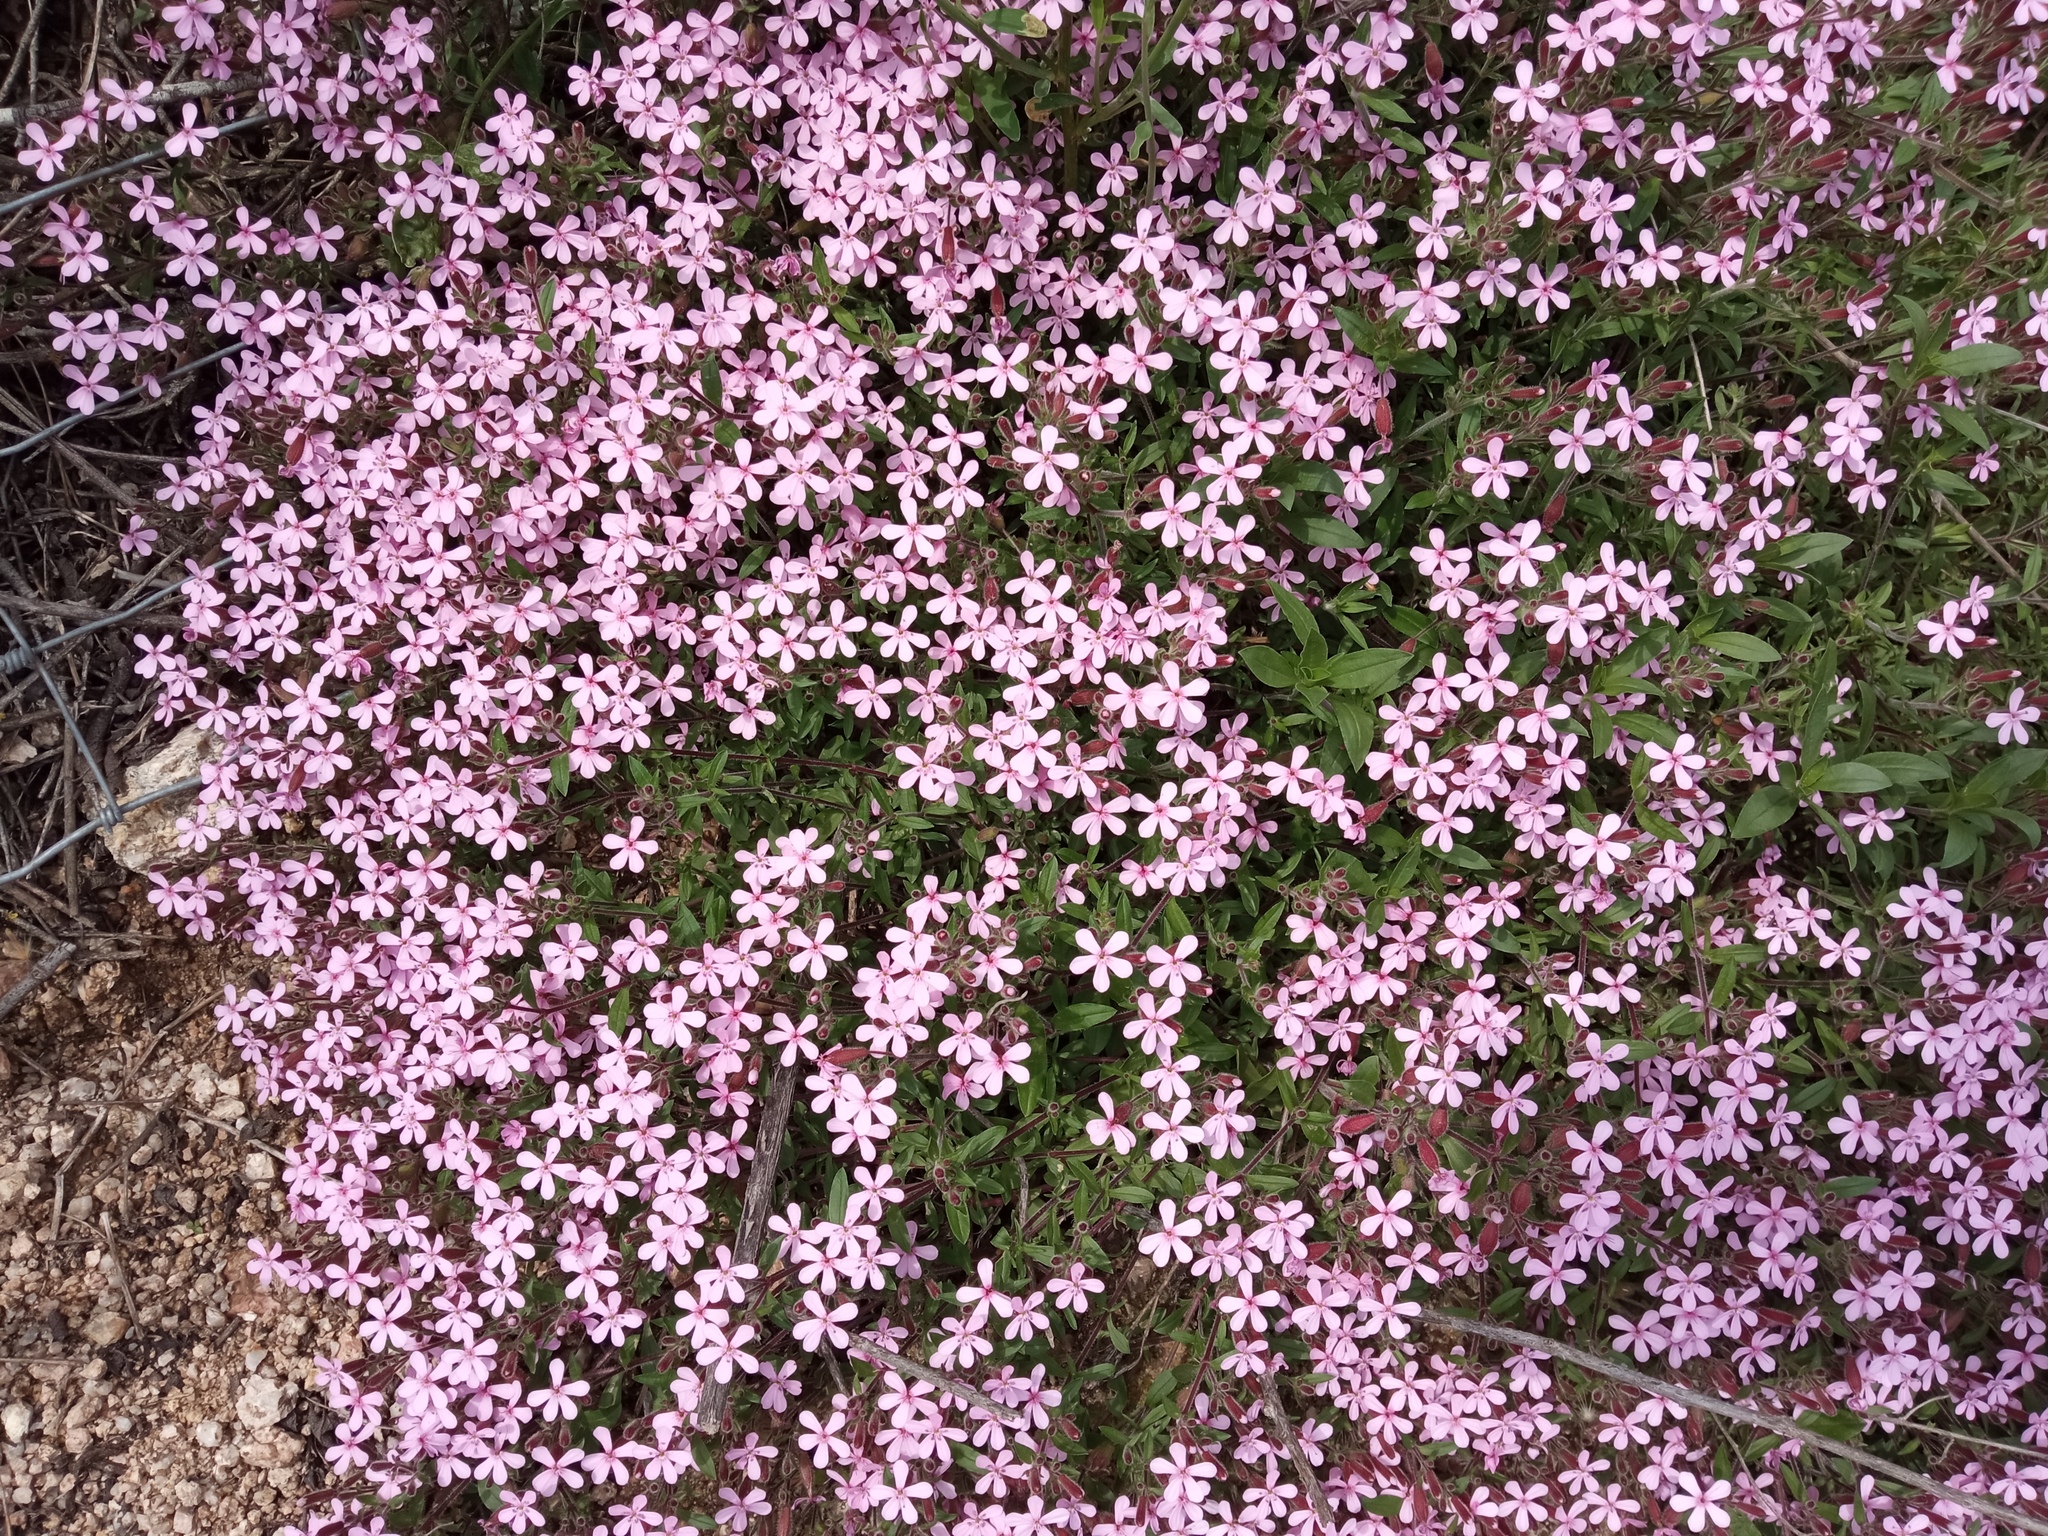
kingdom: Plantae
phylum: Tracheophyta
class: Magnoliopsida
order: Caryophyllales
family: Caryophyllaceae
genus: Saponaria
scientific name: Saponaria ocymoides
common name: Rock soapwort
